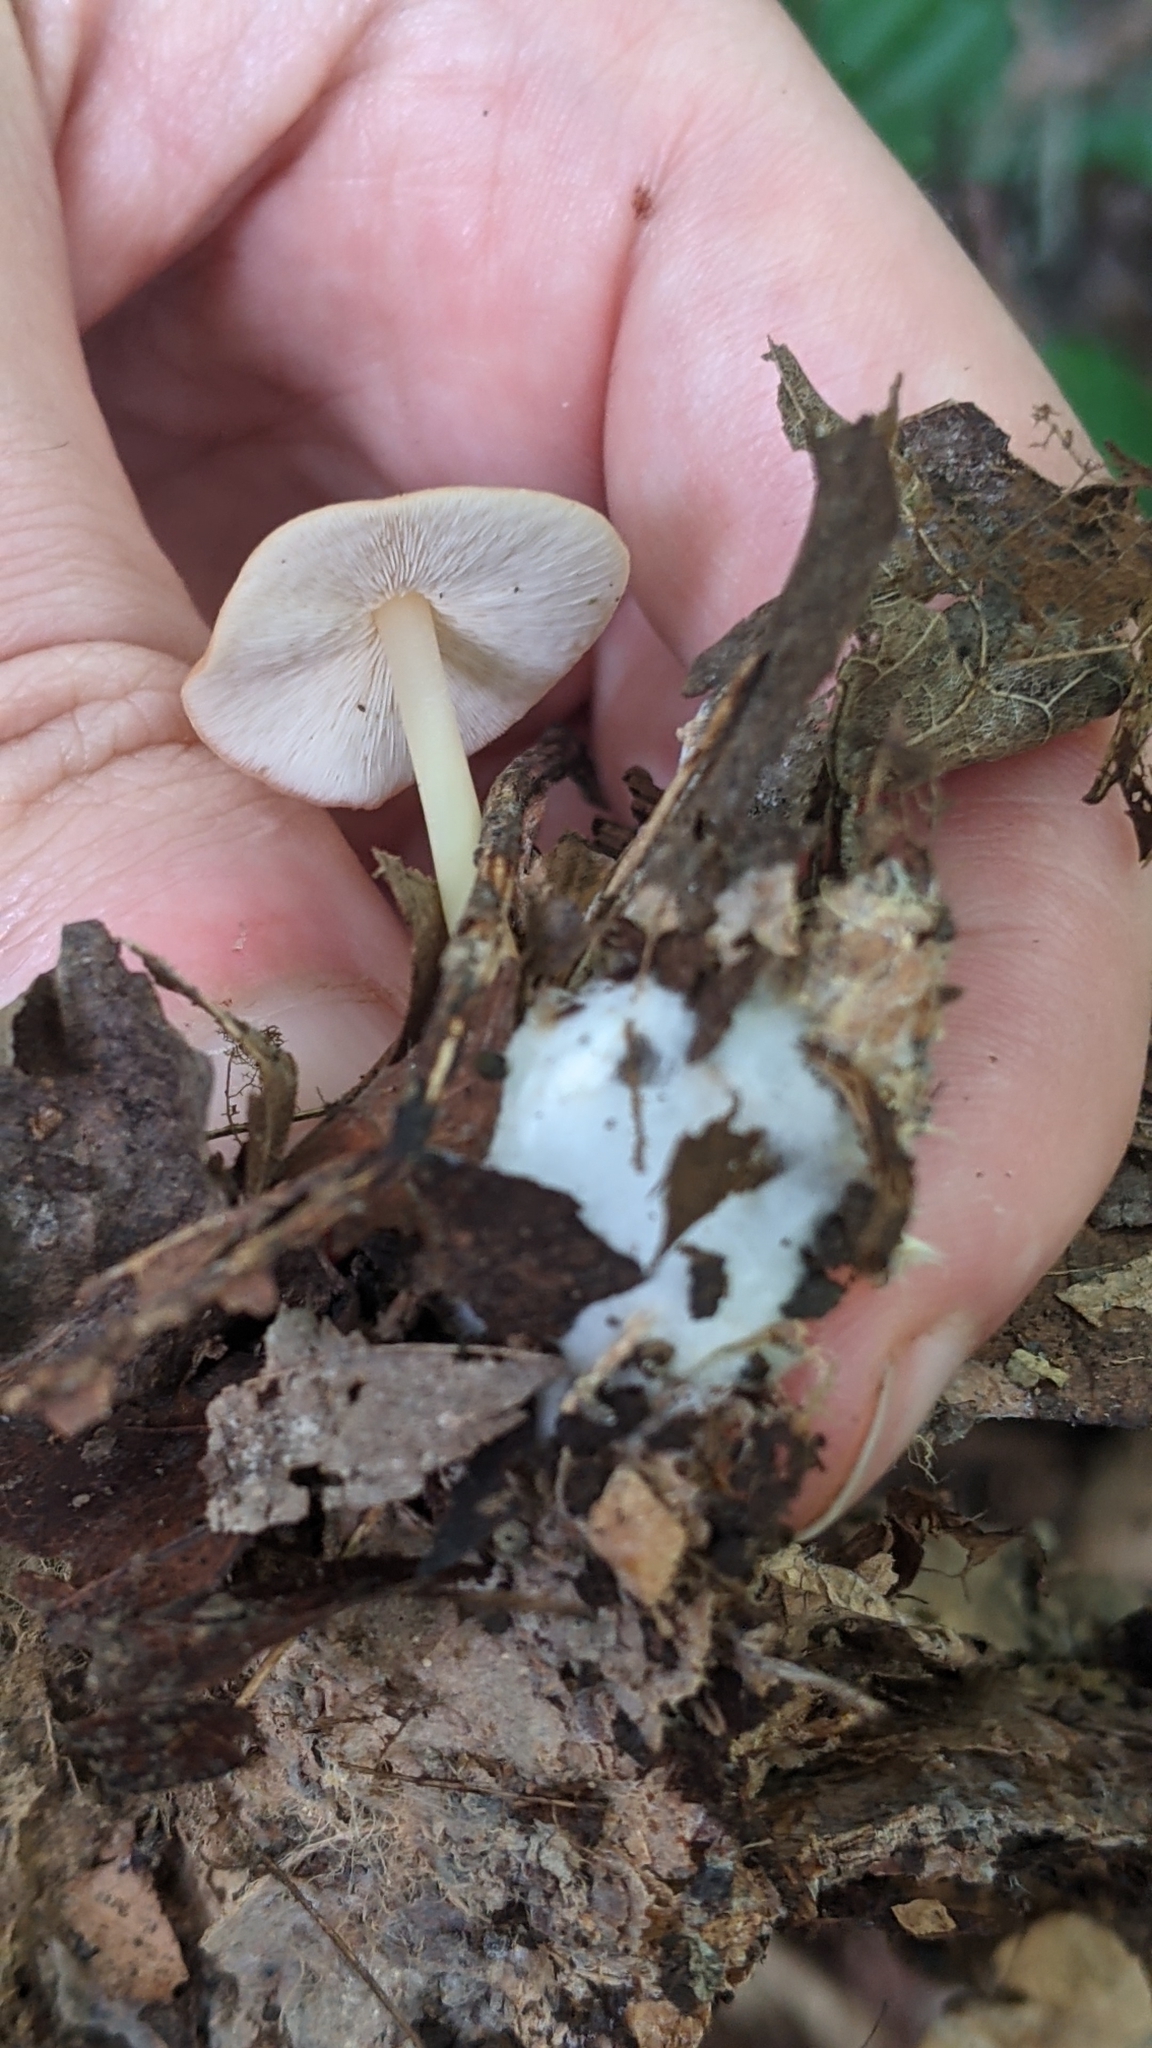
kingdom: Fungi
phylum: Basidiomycota
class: Agaricomycetes
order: Agaricales
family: Omphalotaceae
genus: Gymnopus
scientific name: Gymnopus dryophilus
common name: Penny top
